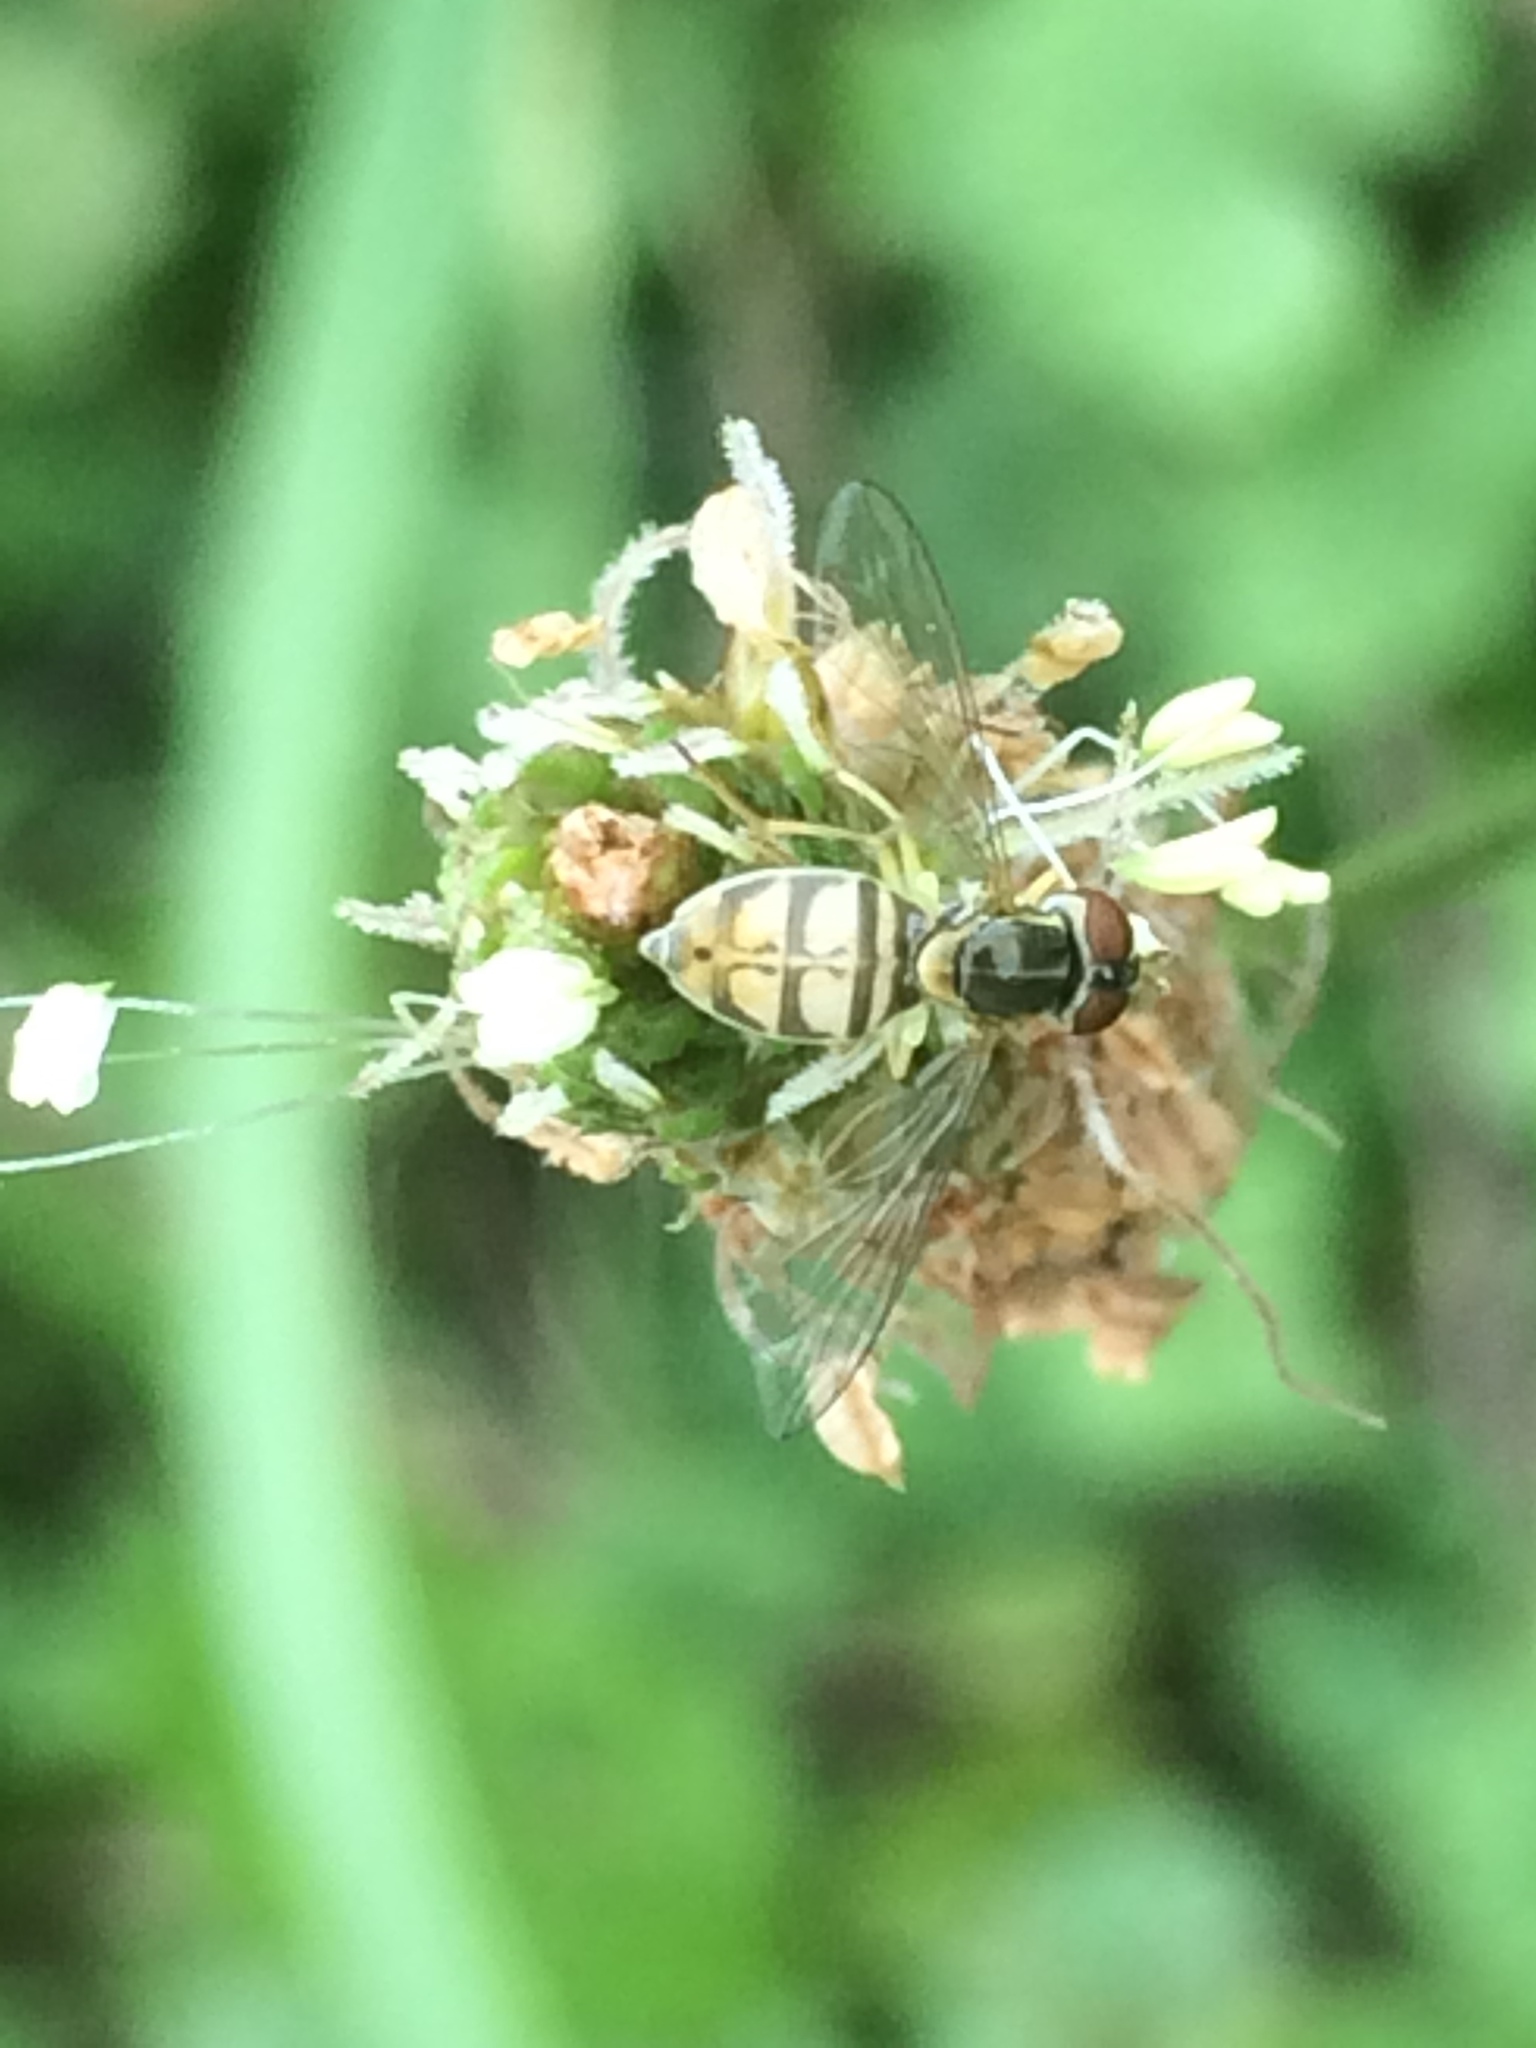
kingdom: Animalia
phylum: Arthropoda
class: Insecta
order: Diptera
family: Syrphidae
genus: Toxomerus
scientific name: Toxomerus marginatus
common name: Syrphid fly
